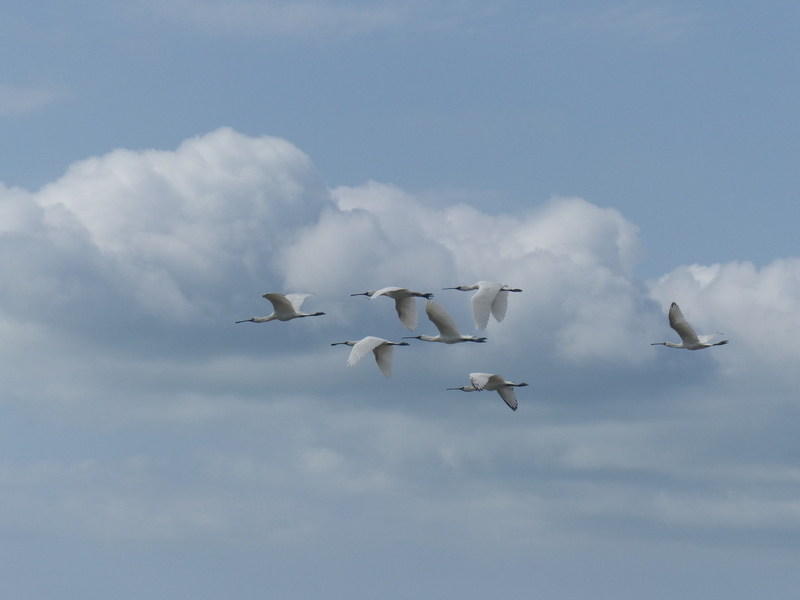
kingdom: Animalia
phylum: Chordata
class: Aves
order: Pelecaniformes
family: Threskiornithidae
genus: Platalea
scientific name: Platalea regia
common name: Royal spoonbill
